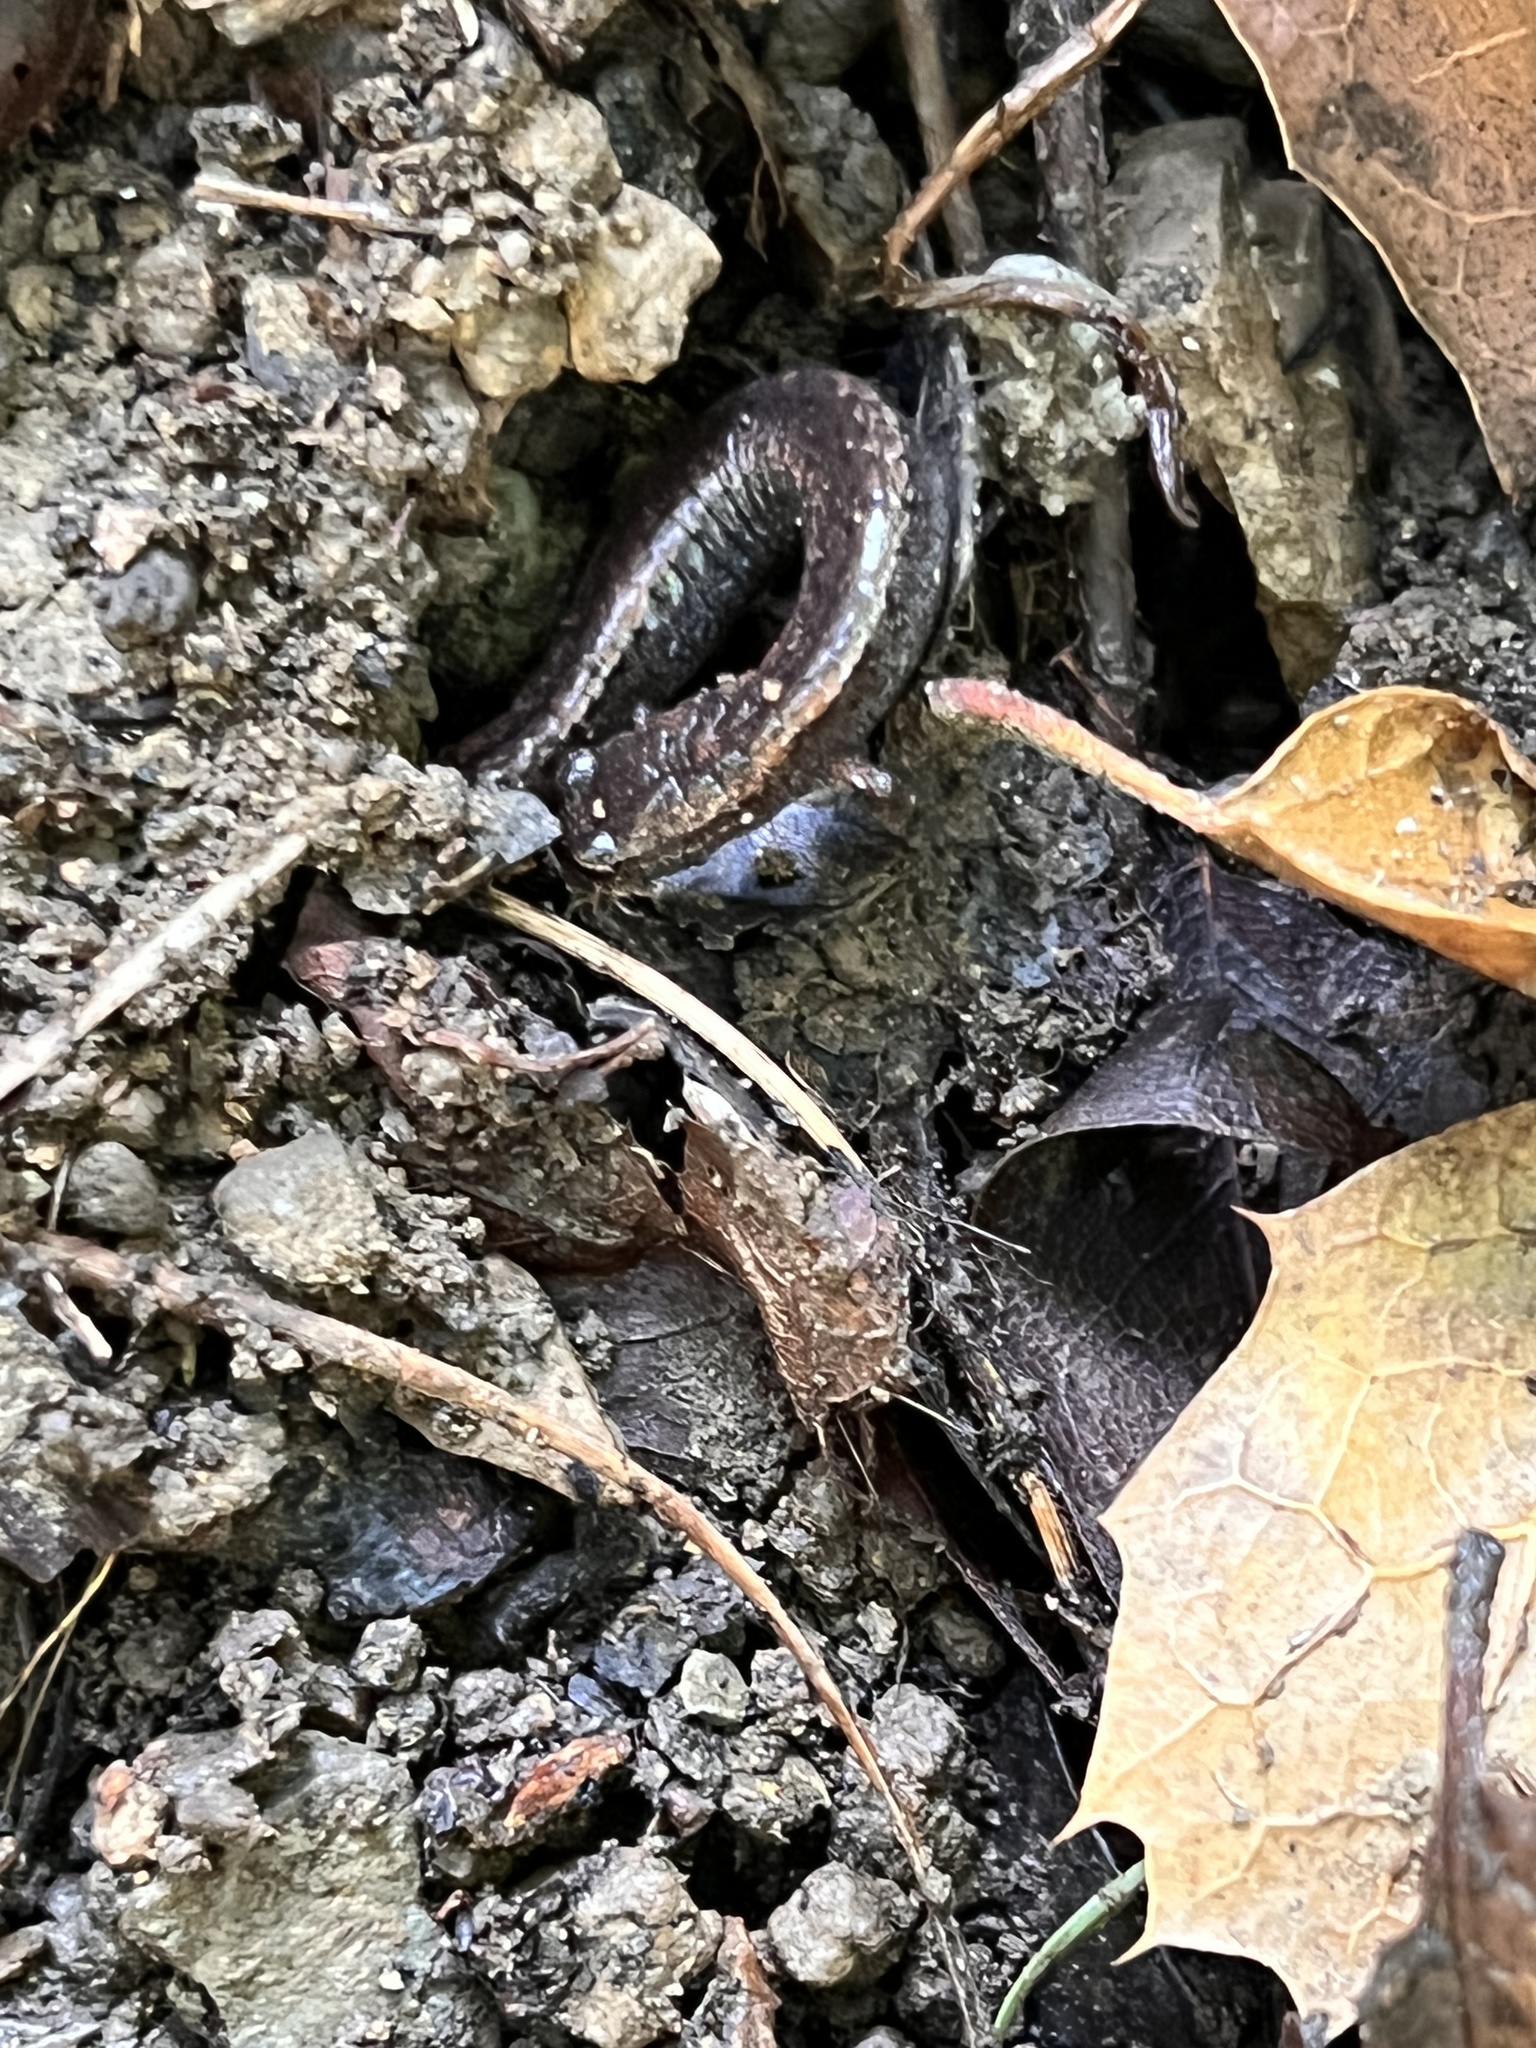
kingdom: Animalia
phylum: Chordata
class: Amphibia
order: Caudata
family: Plethodontidae
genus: Batrachoseps
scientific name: Batrachoseps attenuatus
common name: California slender salamander
